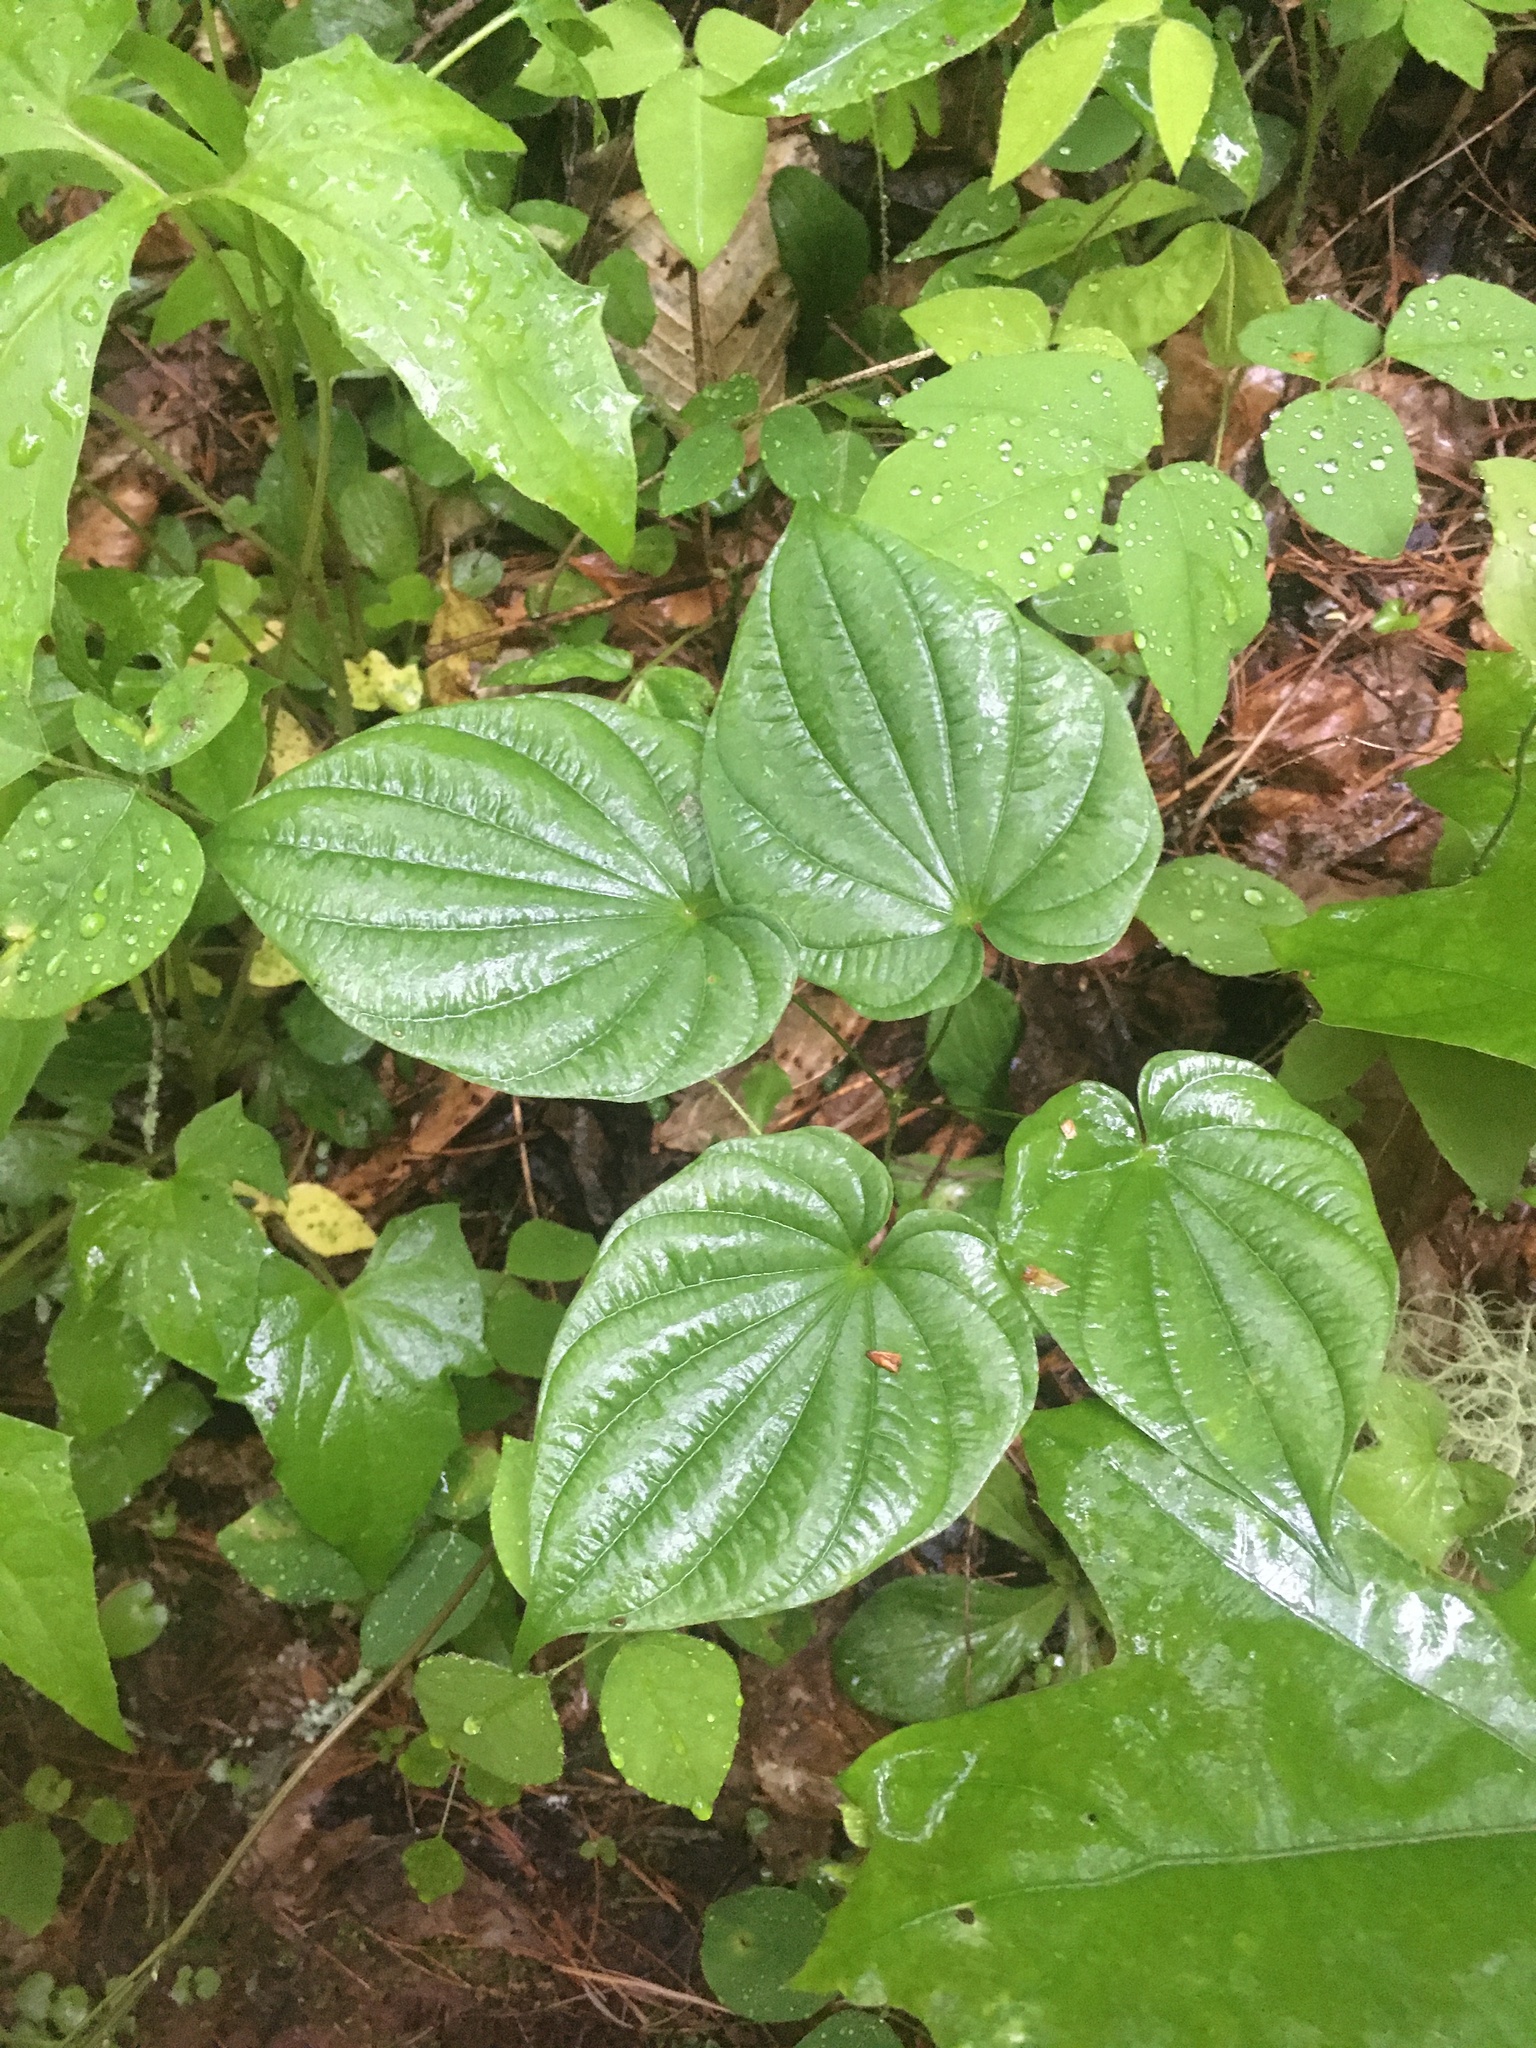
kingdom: Plantae
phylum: Tracheophyta
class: Liliopsida
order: Dioscoreales
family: Dioscoreaceae
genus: Dioscorea
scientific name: Dioscorea villosa
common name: Wild yam
